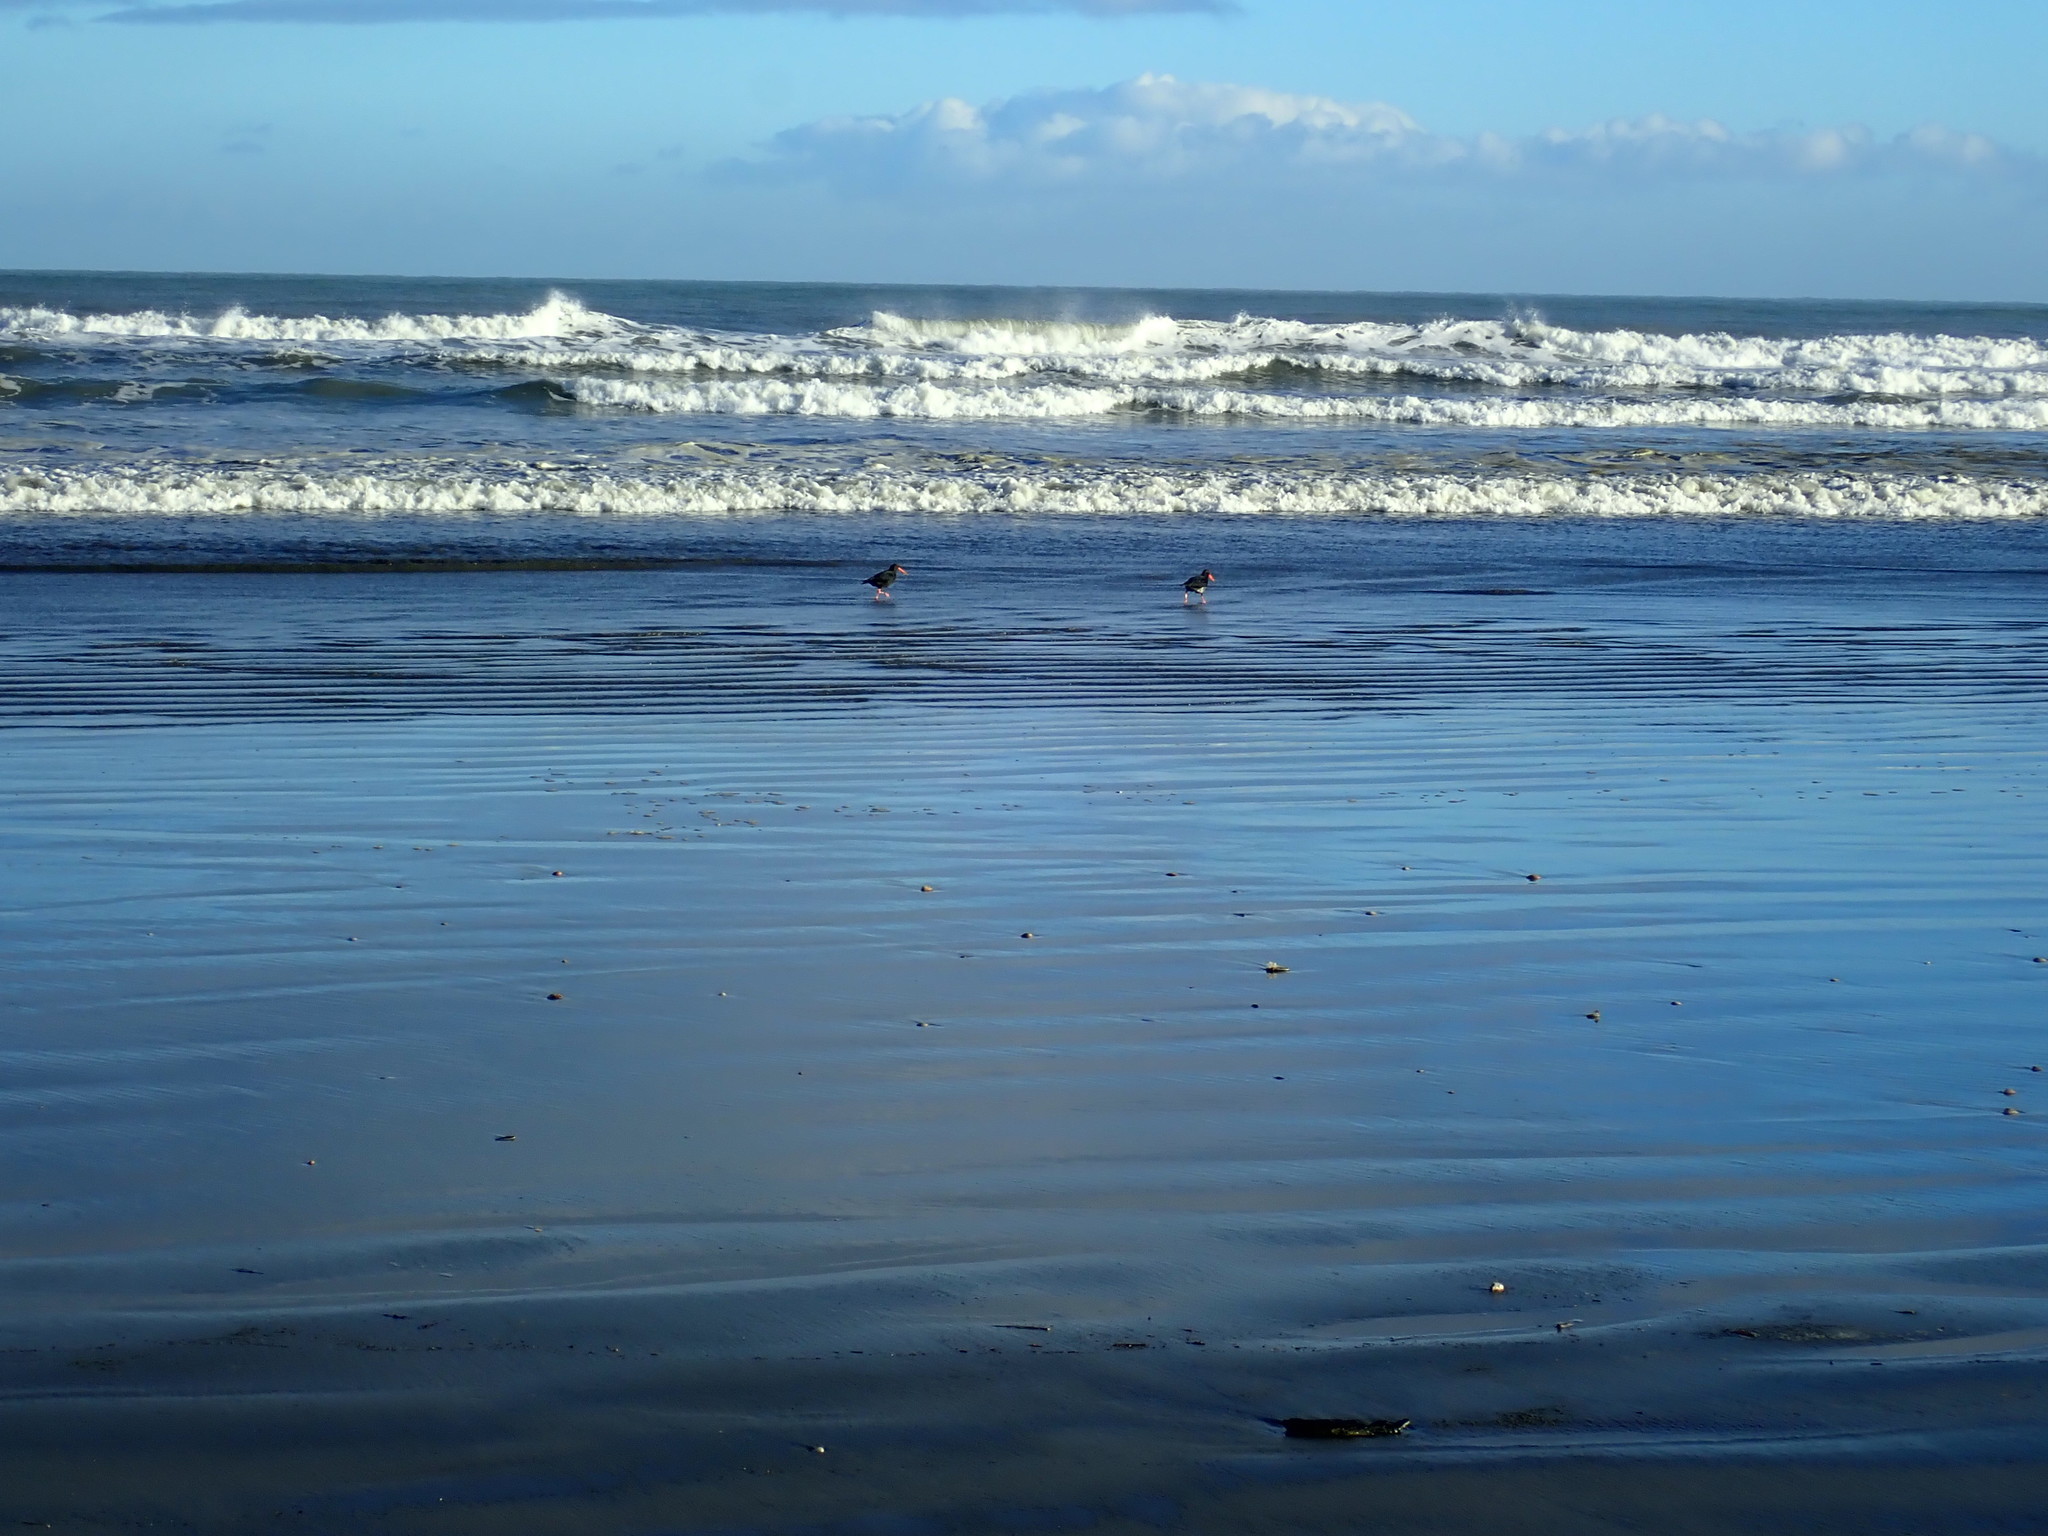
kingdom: Animalia
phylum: Chordata
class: Aves
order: Charadriiformes
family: Haematopodidae
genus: Haematopus
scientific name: Haematopus unicolor
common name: Variable oystercatcher
